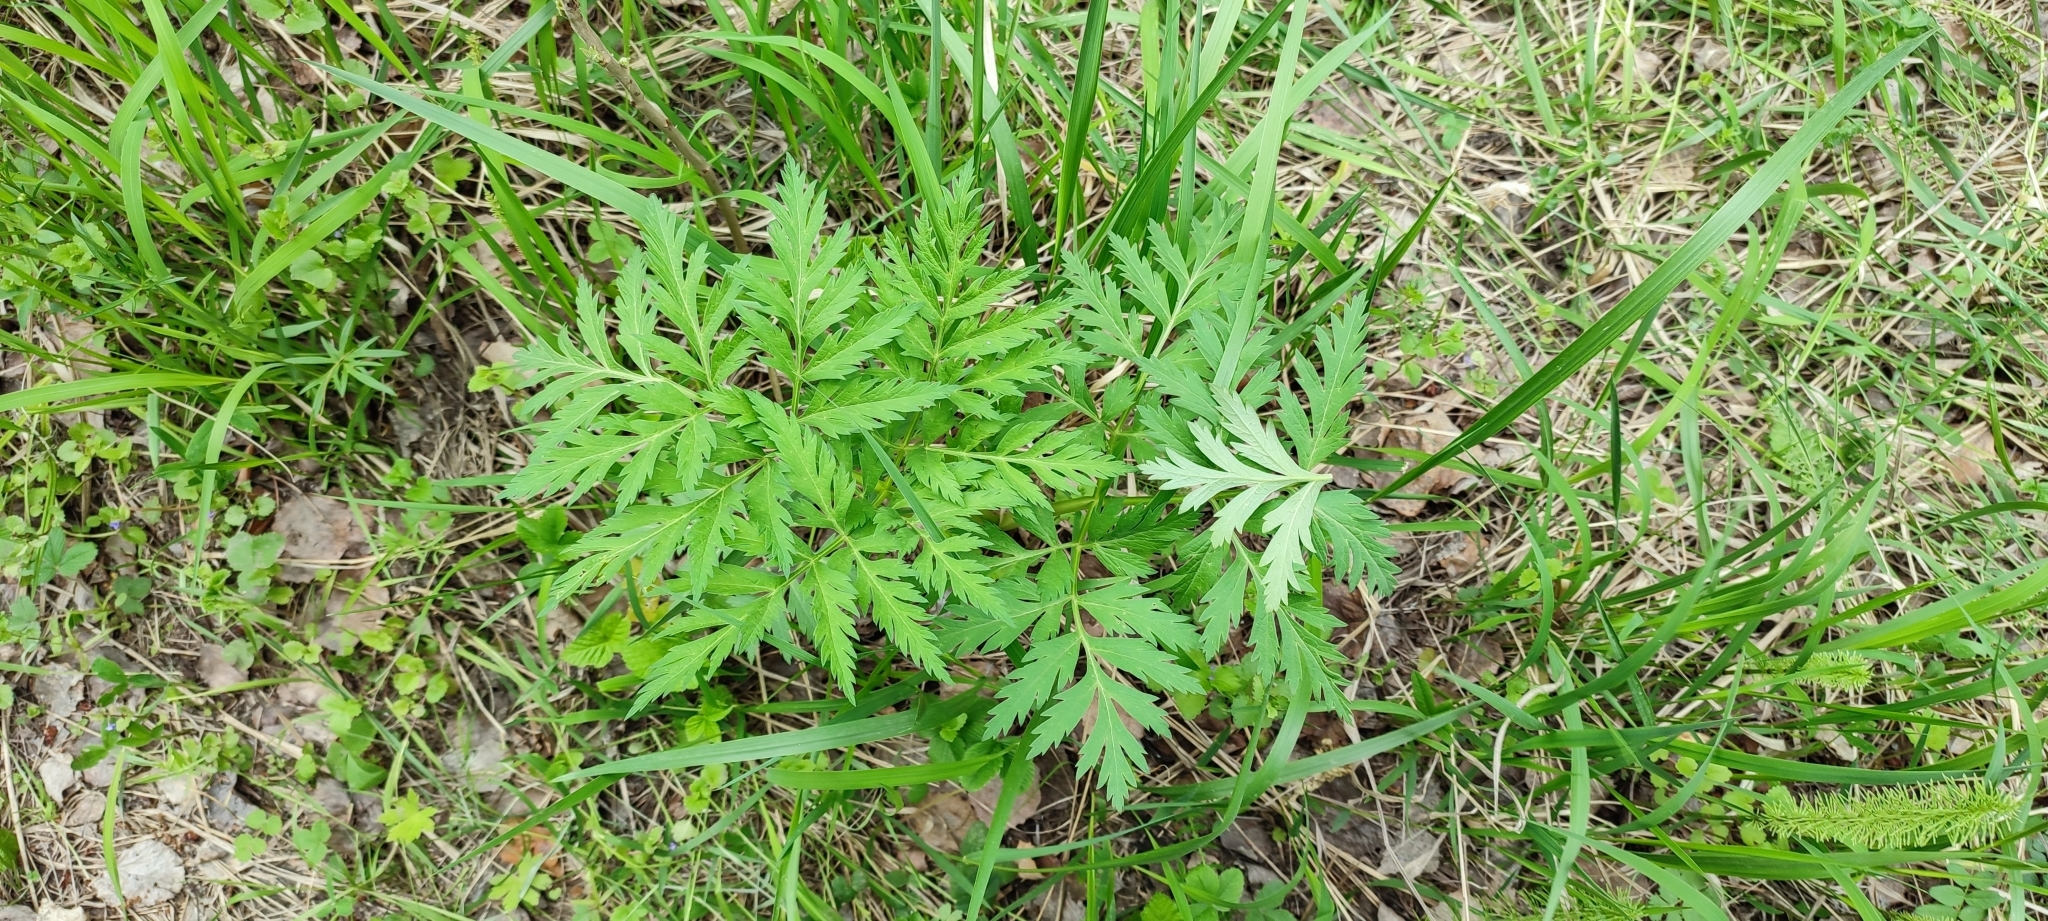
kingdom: Plantae
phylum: Tracheophyta
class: Magnoliopsida
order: Apiales
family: Apiaceae
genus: Pleurospermum
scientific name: Pleurospermum uralense
